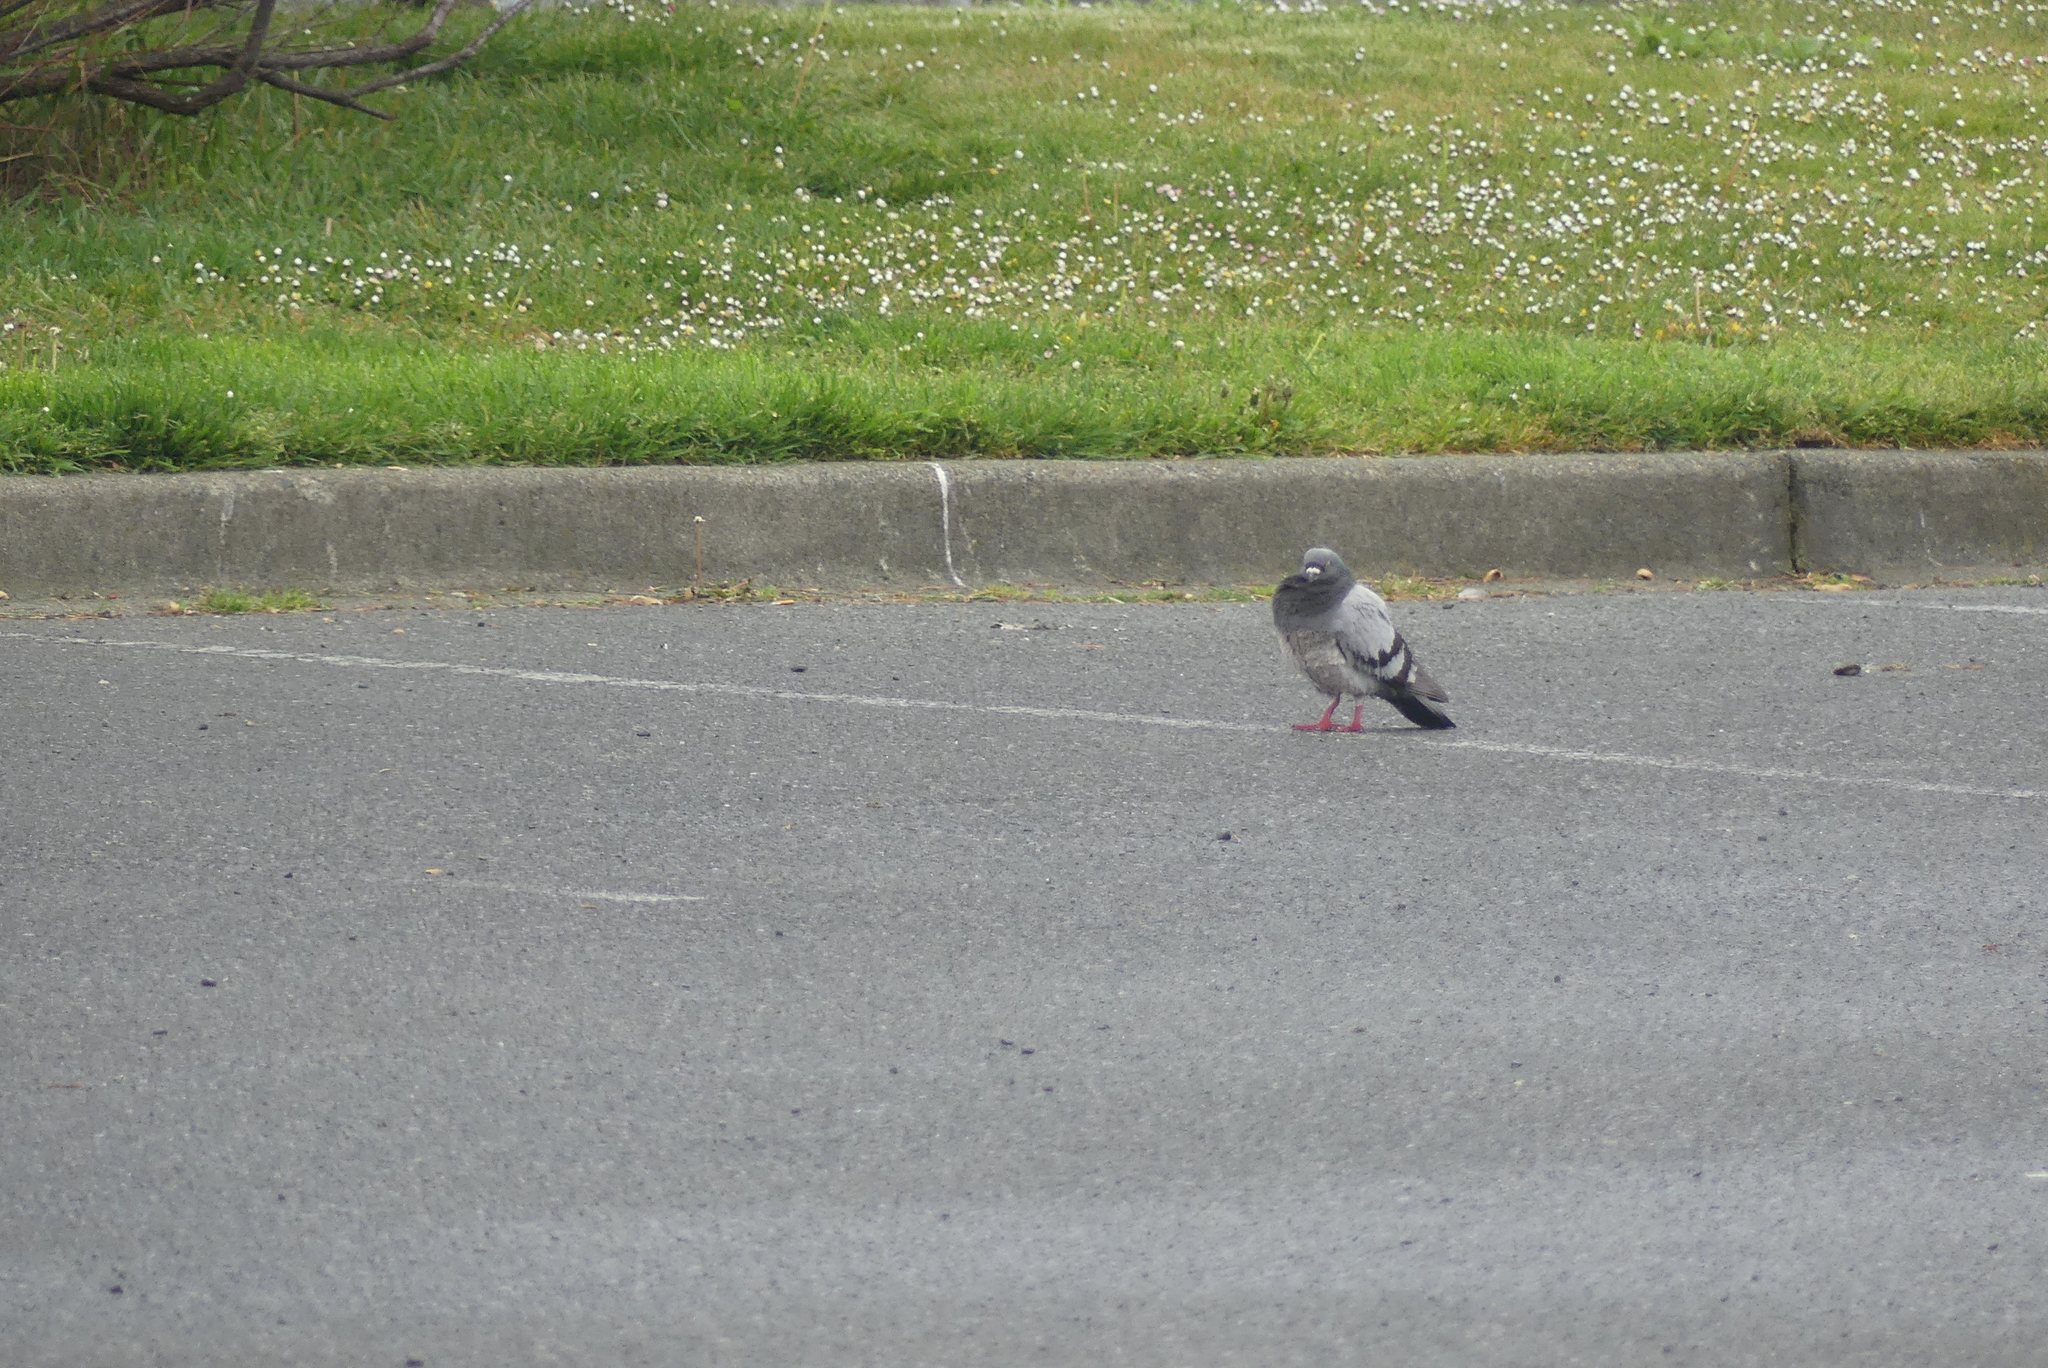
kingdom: Animalia
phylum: Chordata
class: Aves
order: Columbiformes
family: Columbidae
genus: Columba
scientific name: Columba livia
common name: Rock pigeon
